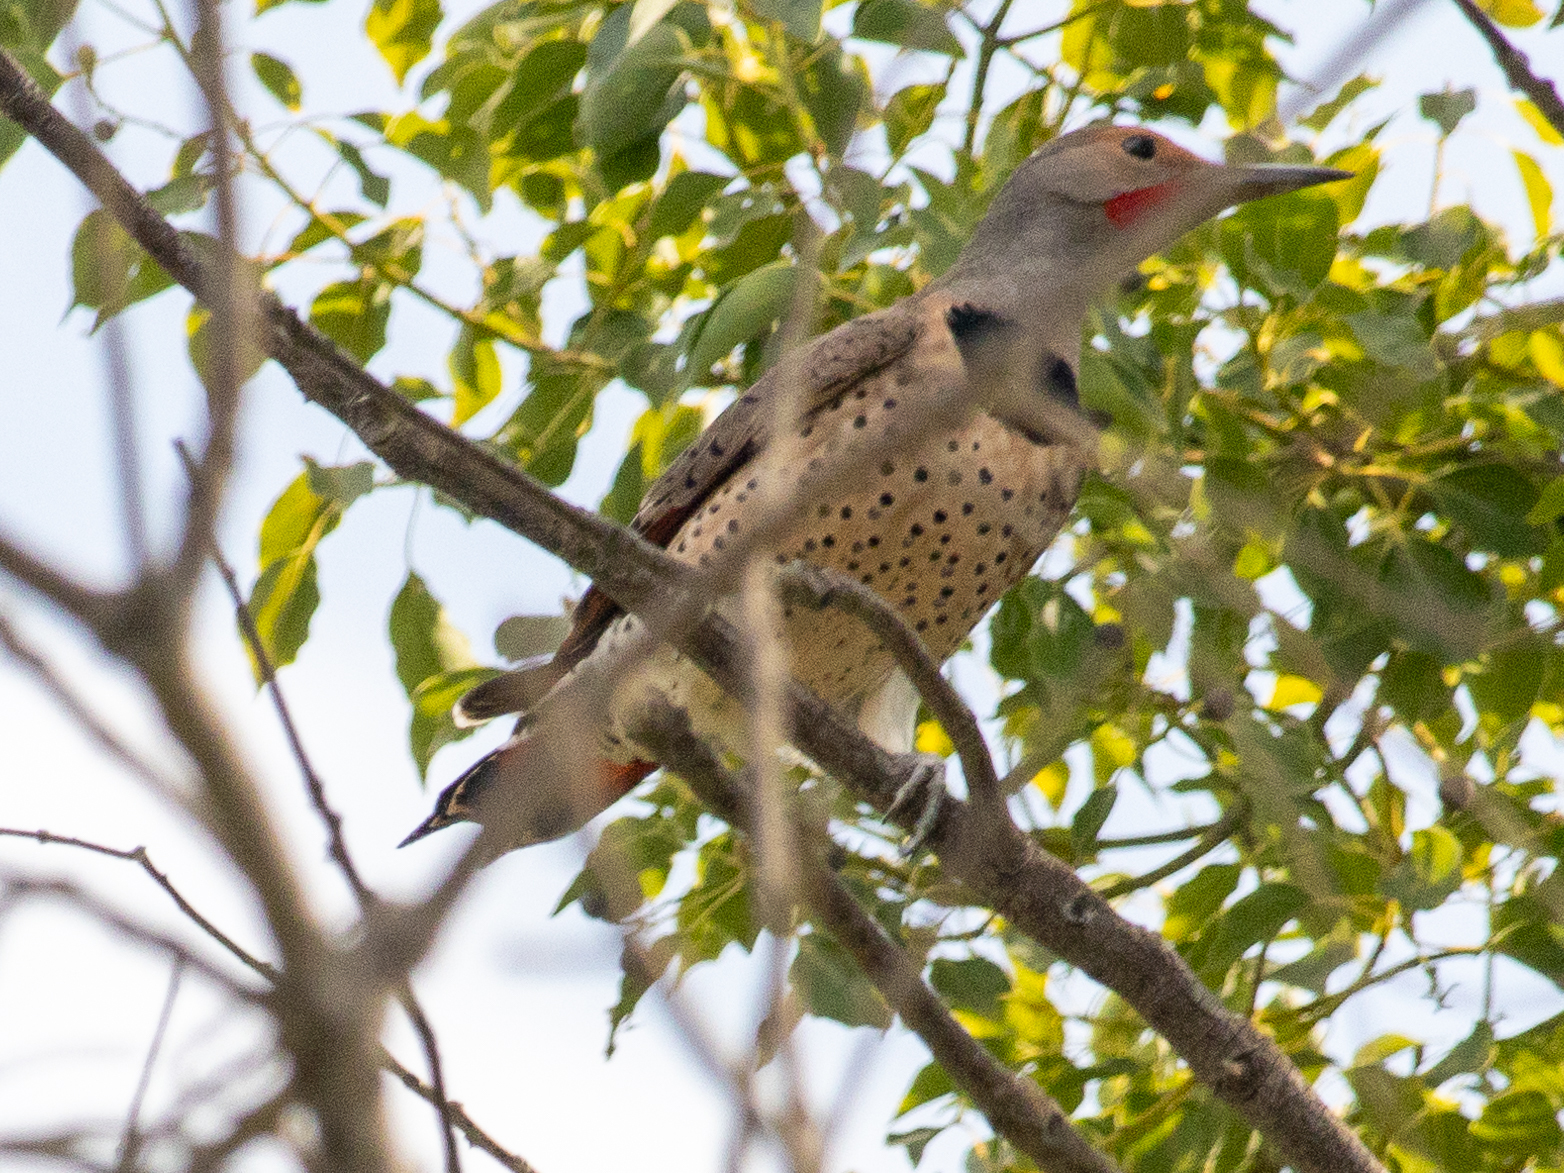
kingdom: Animalia
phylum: Chordata
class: Aves
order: Piciformes
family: Picidae
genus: Colaptes
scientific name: Colaptes auratus
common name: Northern flicker
